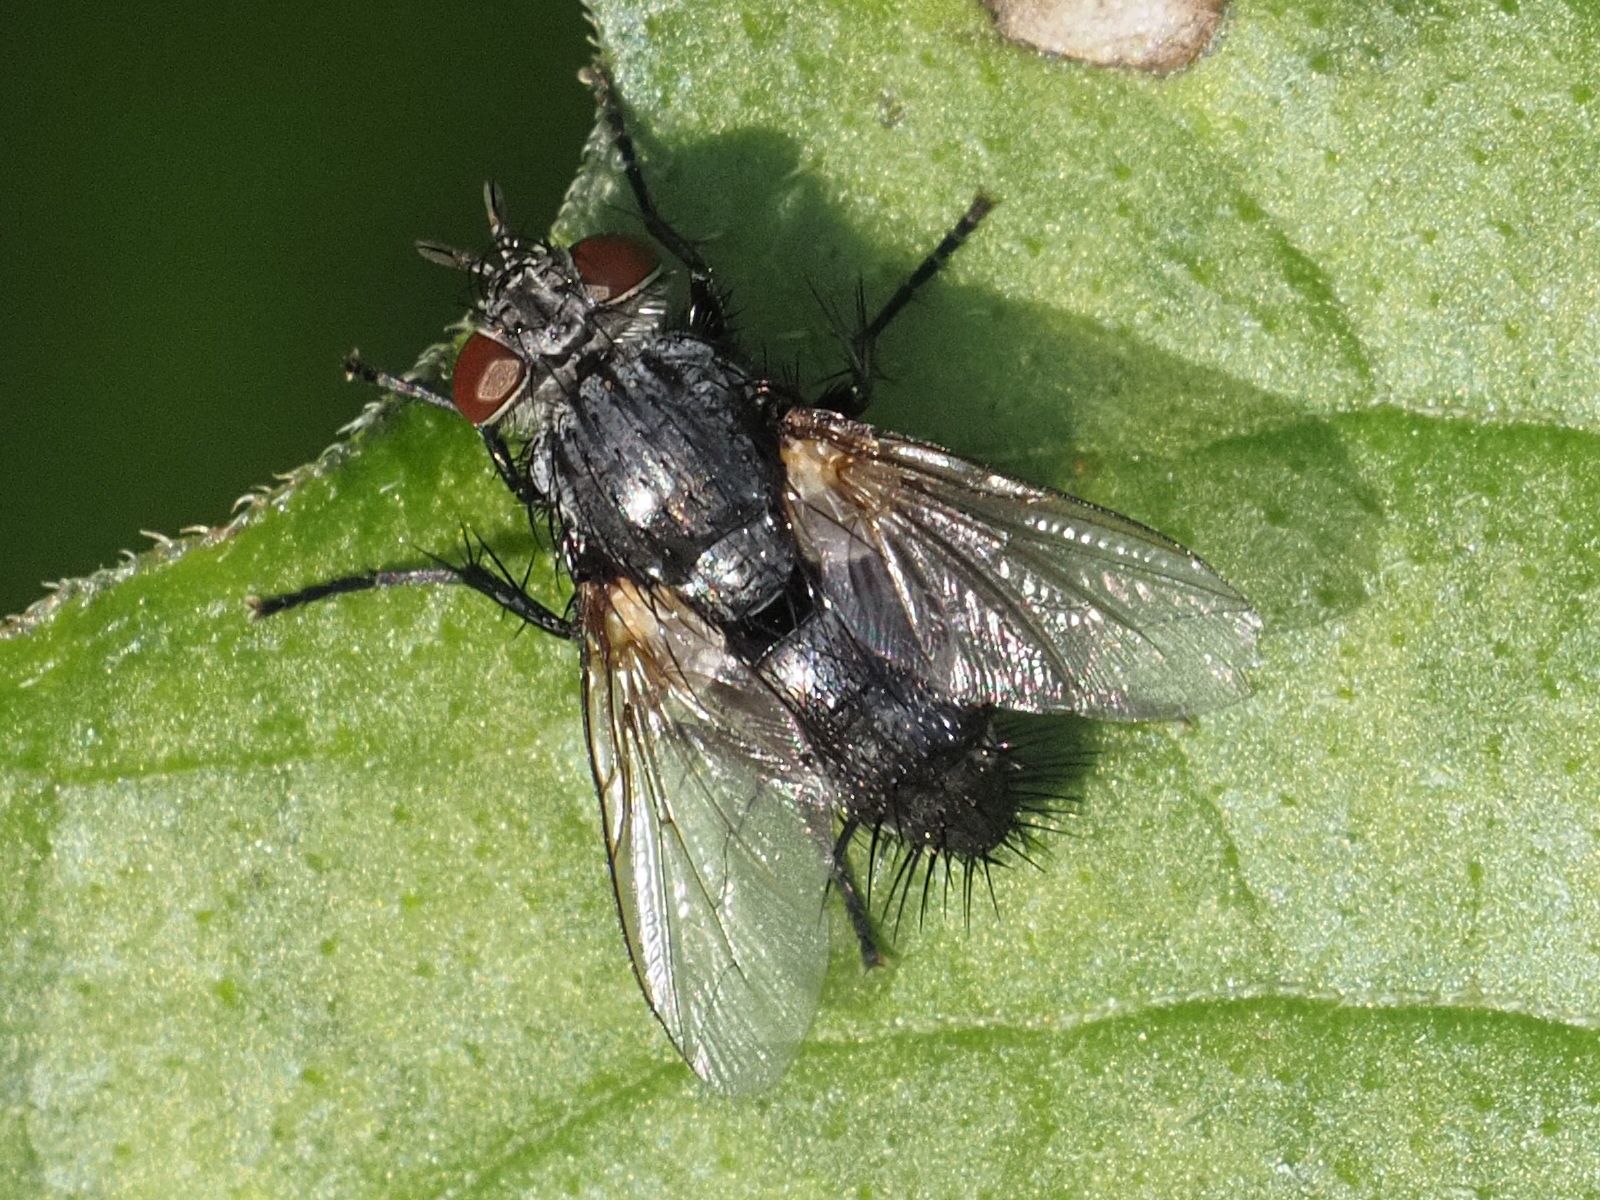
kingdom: Animalia
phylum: Arthropoda
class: Insecta
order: Diptera
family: Tachinidae
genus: Voria
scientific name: Voria ruralis
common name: Parasitic fly
